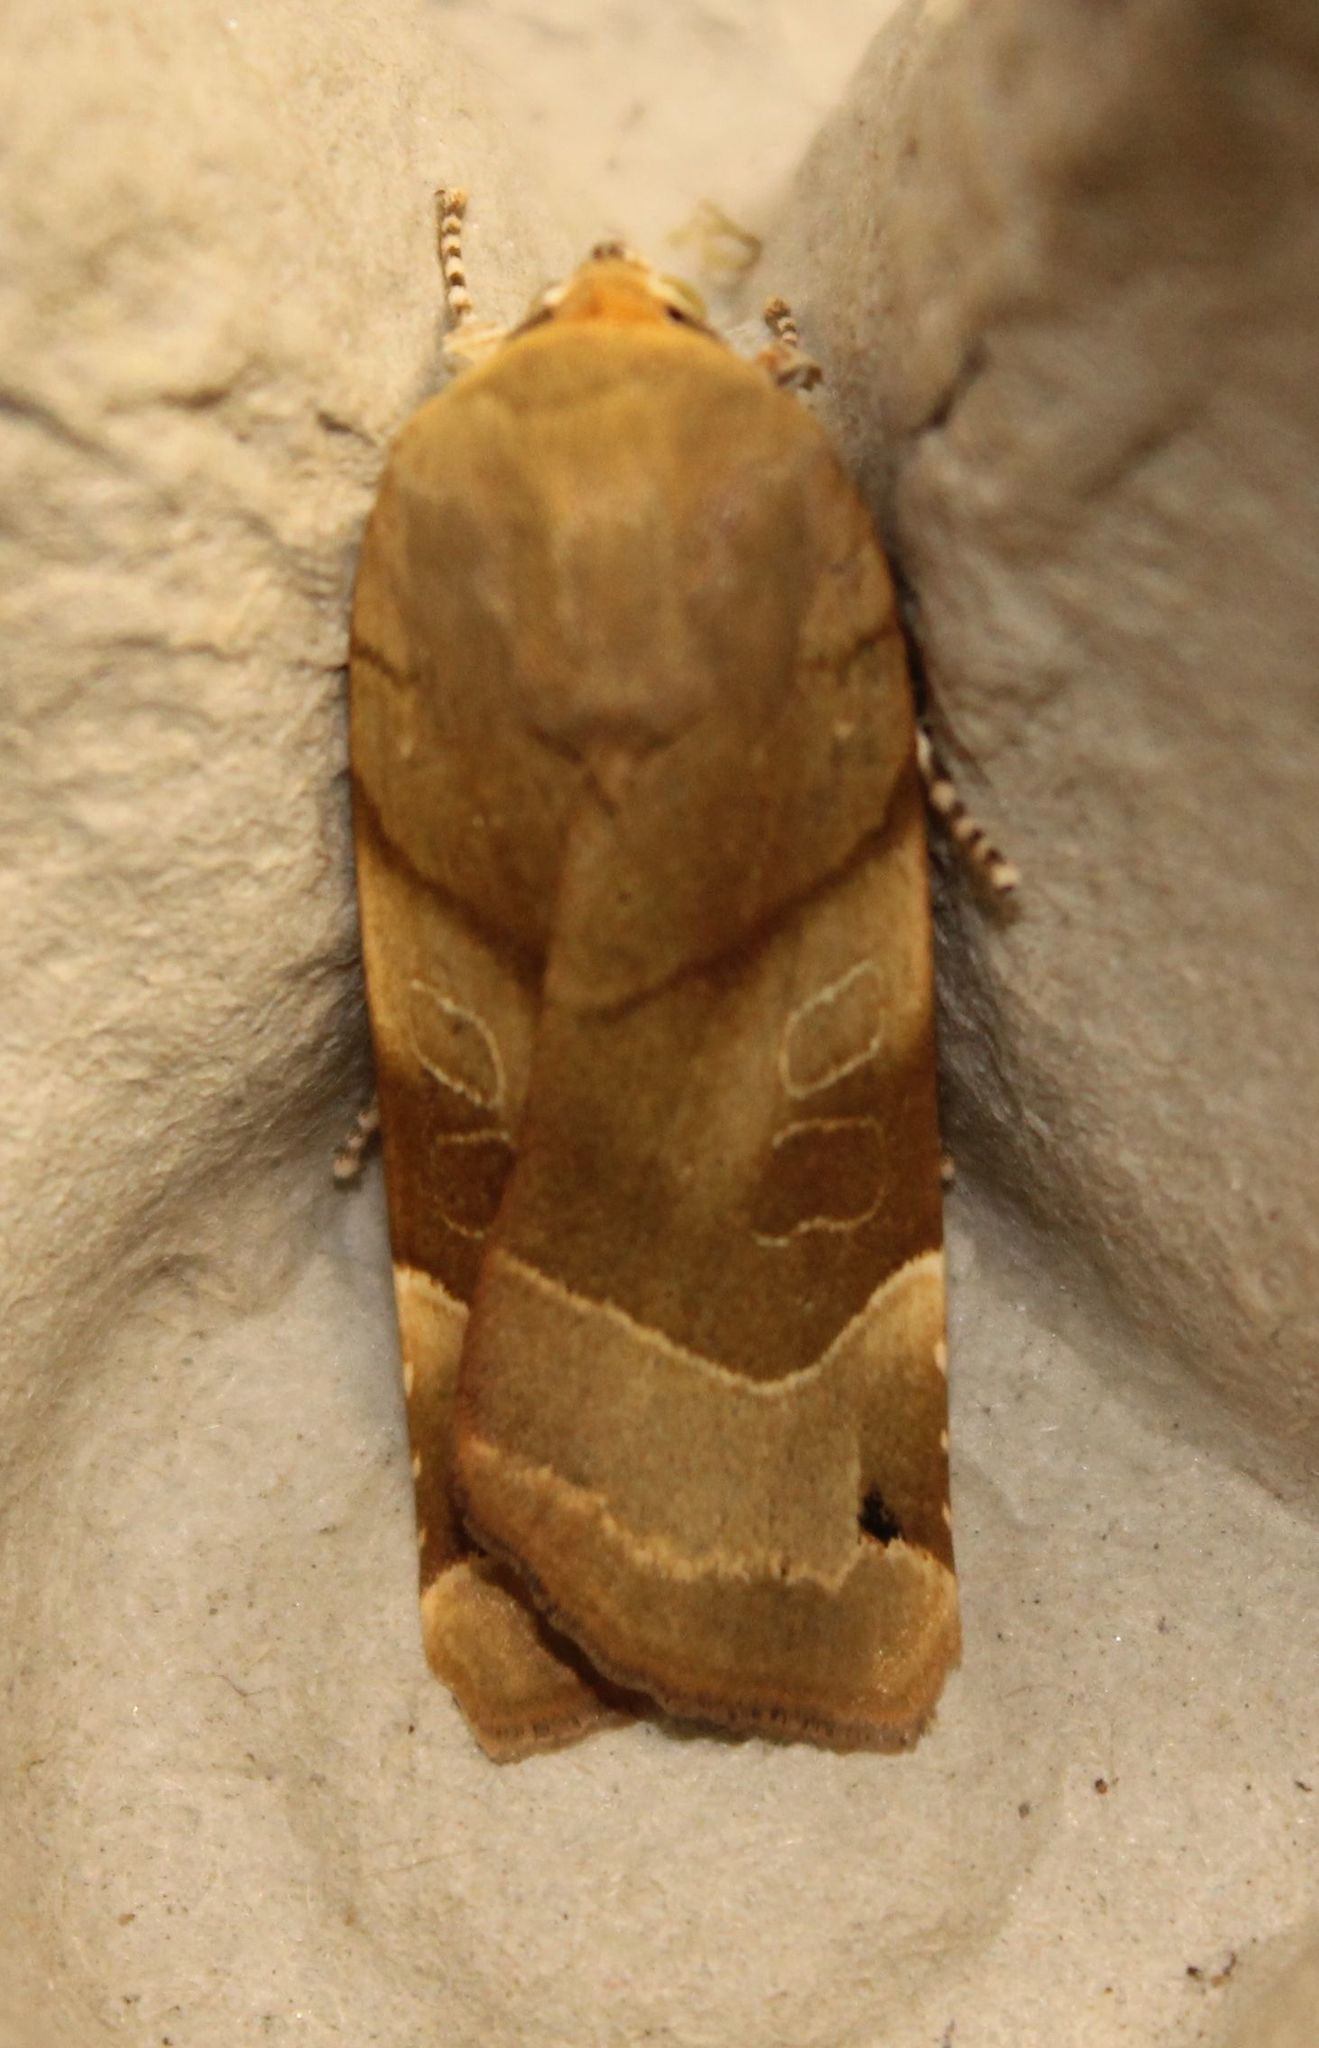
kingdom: Animalia
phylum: Arthropoda
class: Insecta
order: Lepidoptera
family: Noctuidae
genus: Noctua
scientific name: Noctua fimbriata
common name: Broad-bordered yellow underwing
